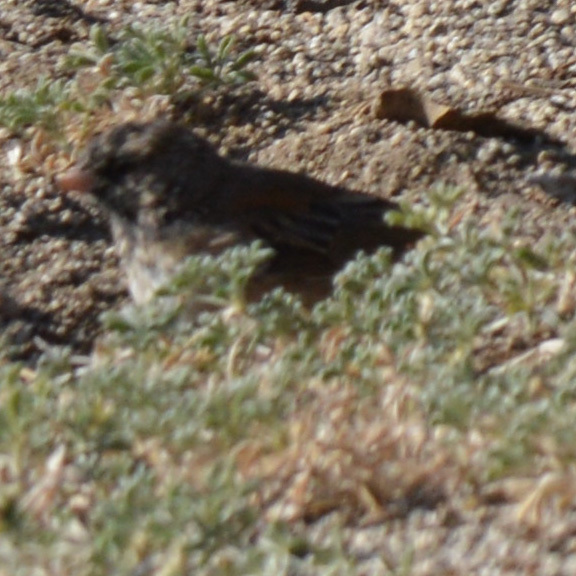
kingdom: Animalia
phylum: Chordata
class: Aves
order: Passeriformes
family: Passerellidae
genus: Junco
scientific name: Junco hyemalis
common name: Dark-eyed junco
